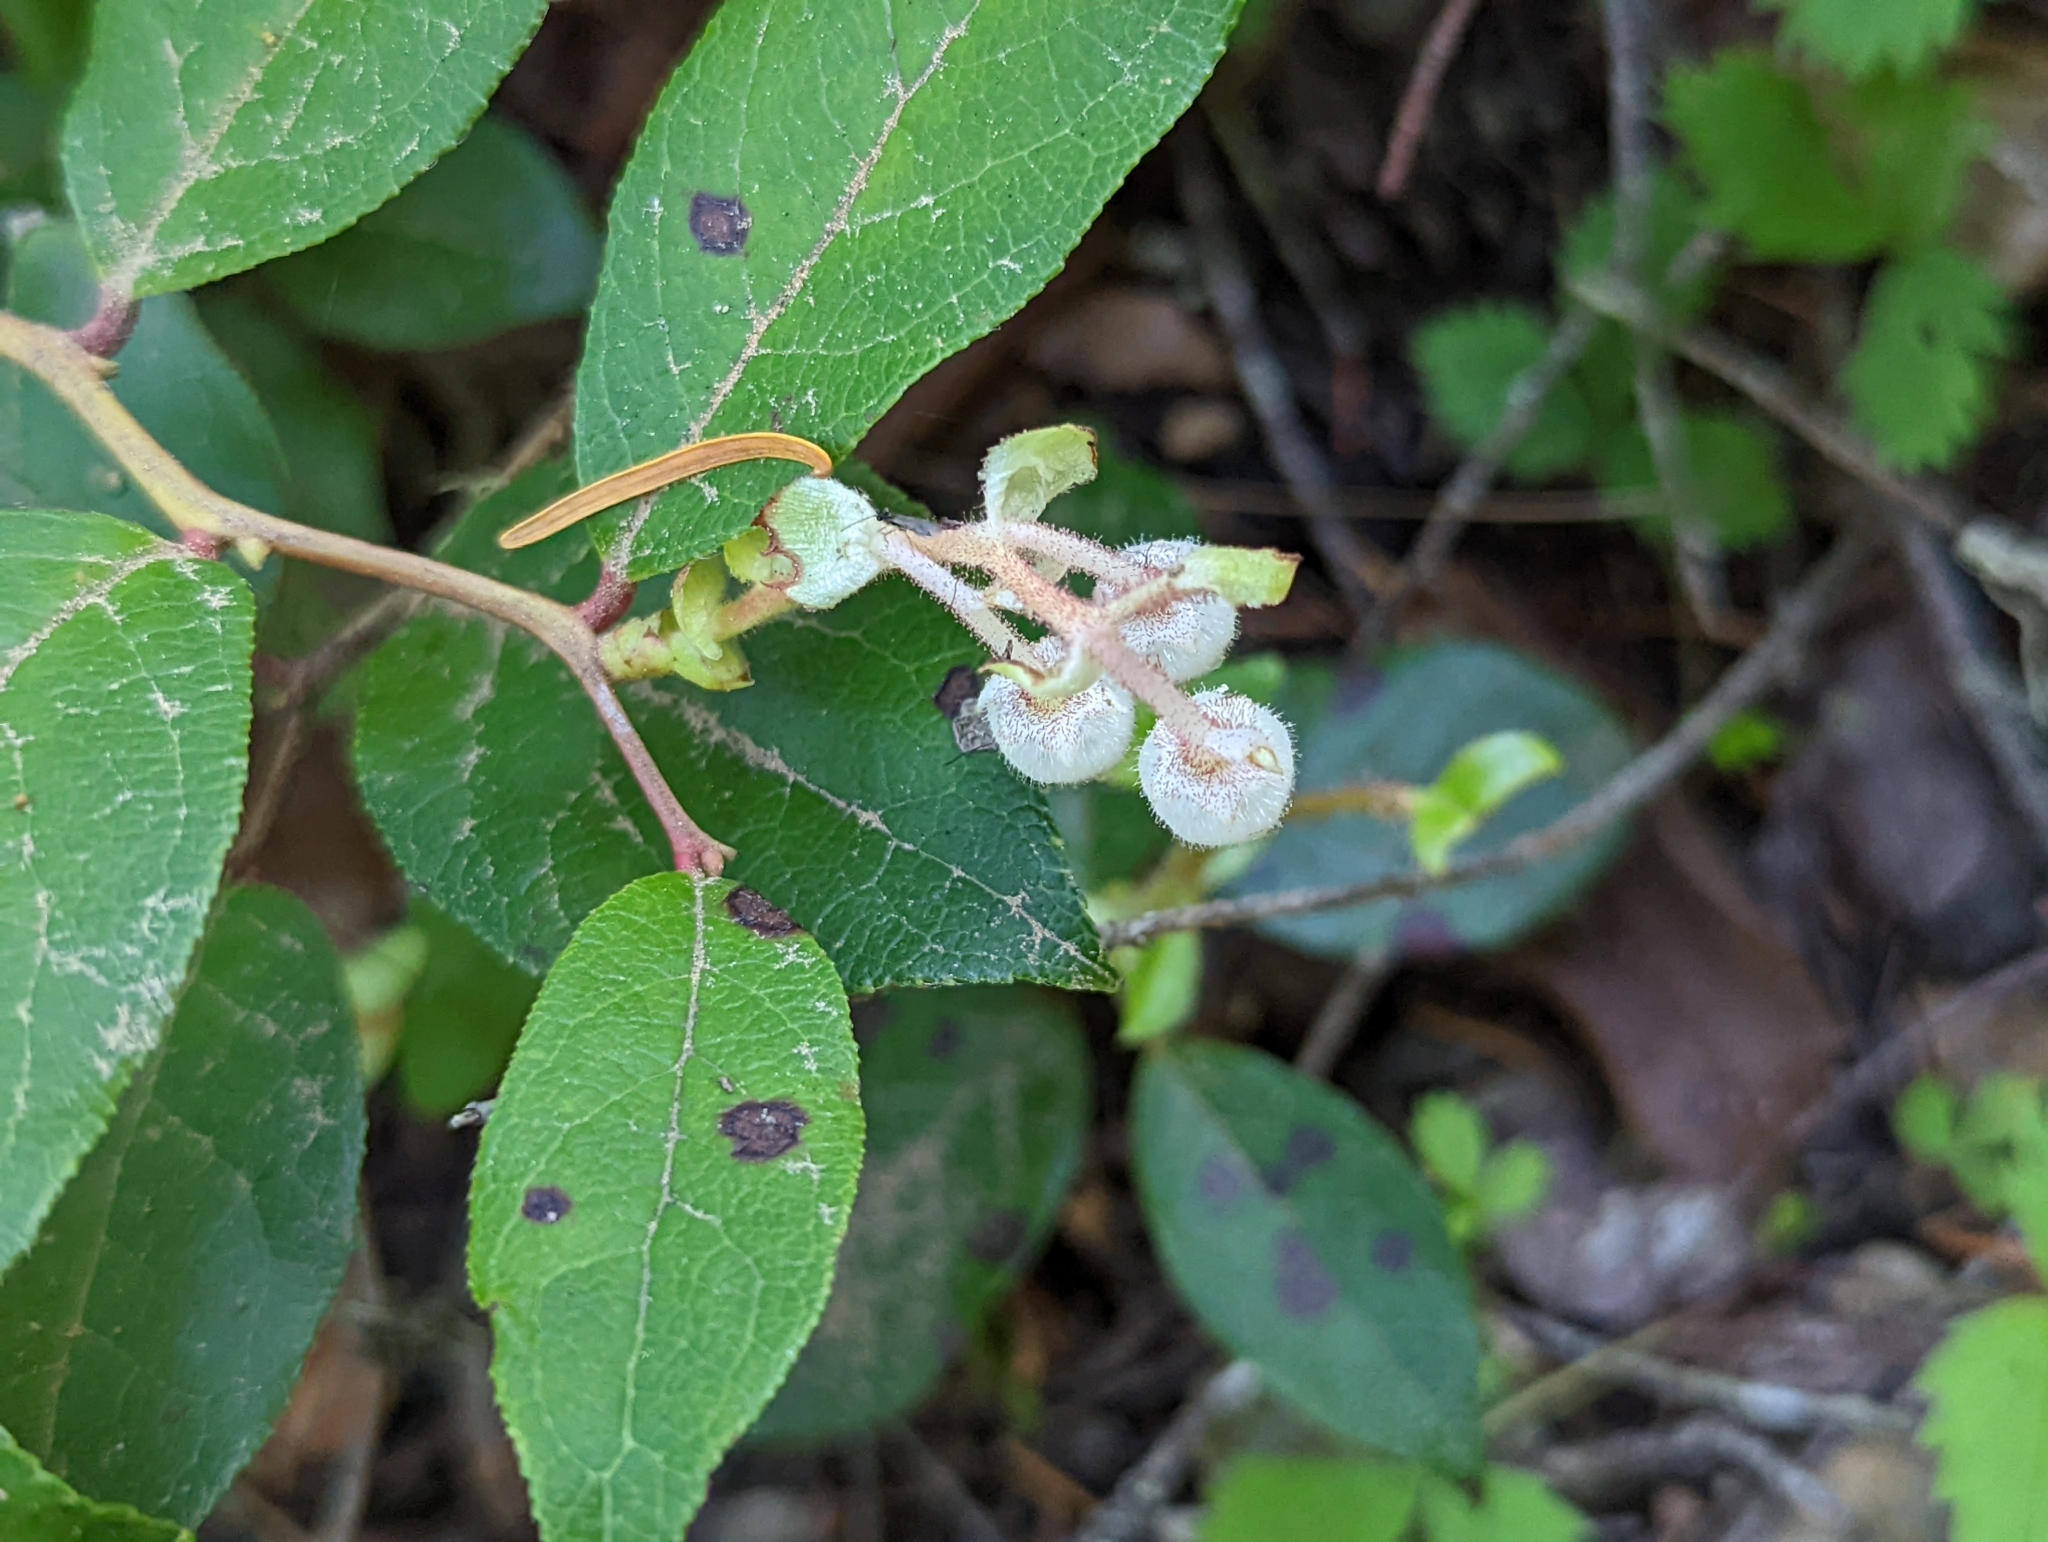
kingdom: Plantae
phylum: Tracheophyta
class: Magnoliopsida
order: Ericales
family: Ericaceae
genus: Gaultheria
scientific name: Gaultheria shallon
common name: Shallon
